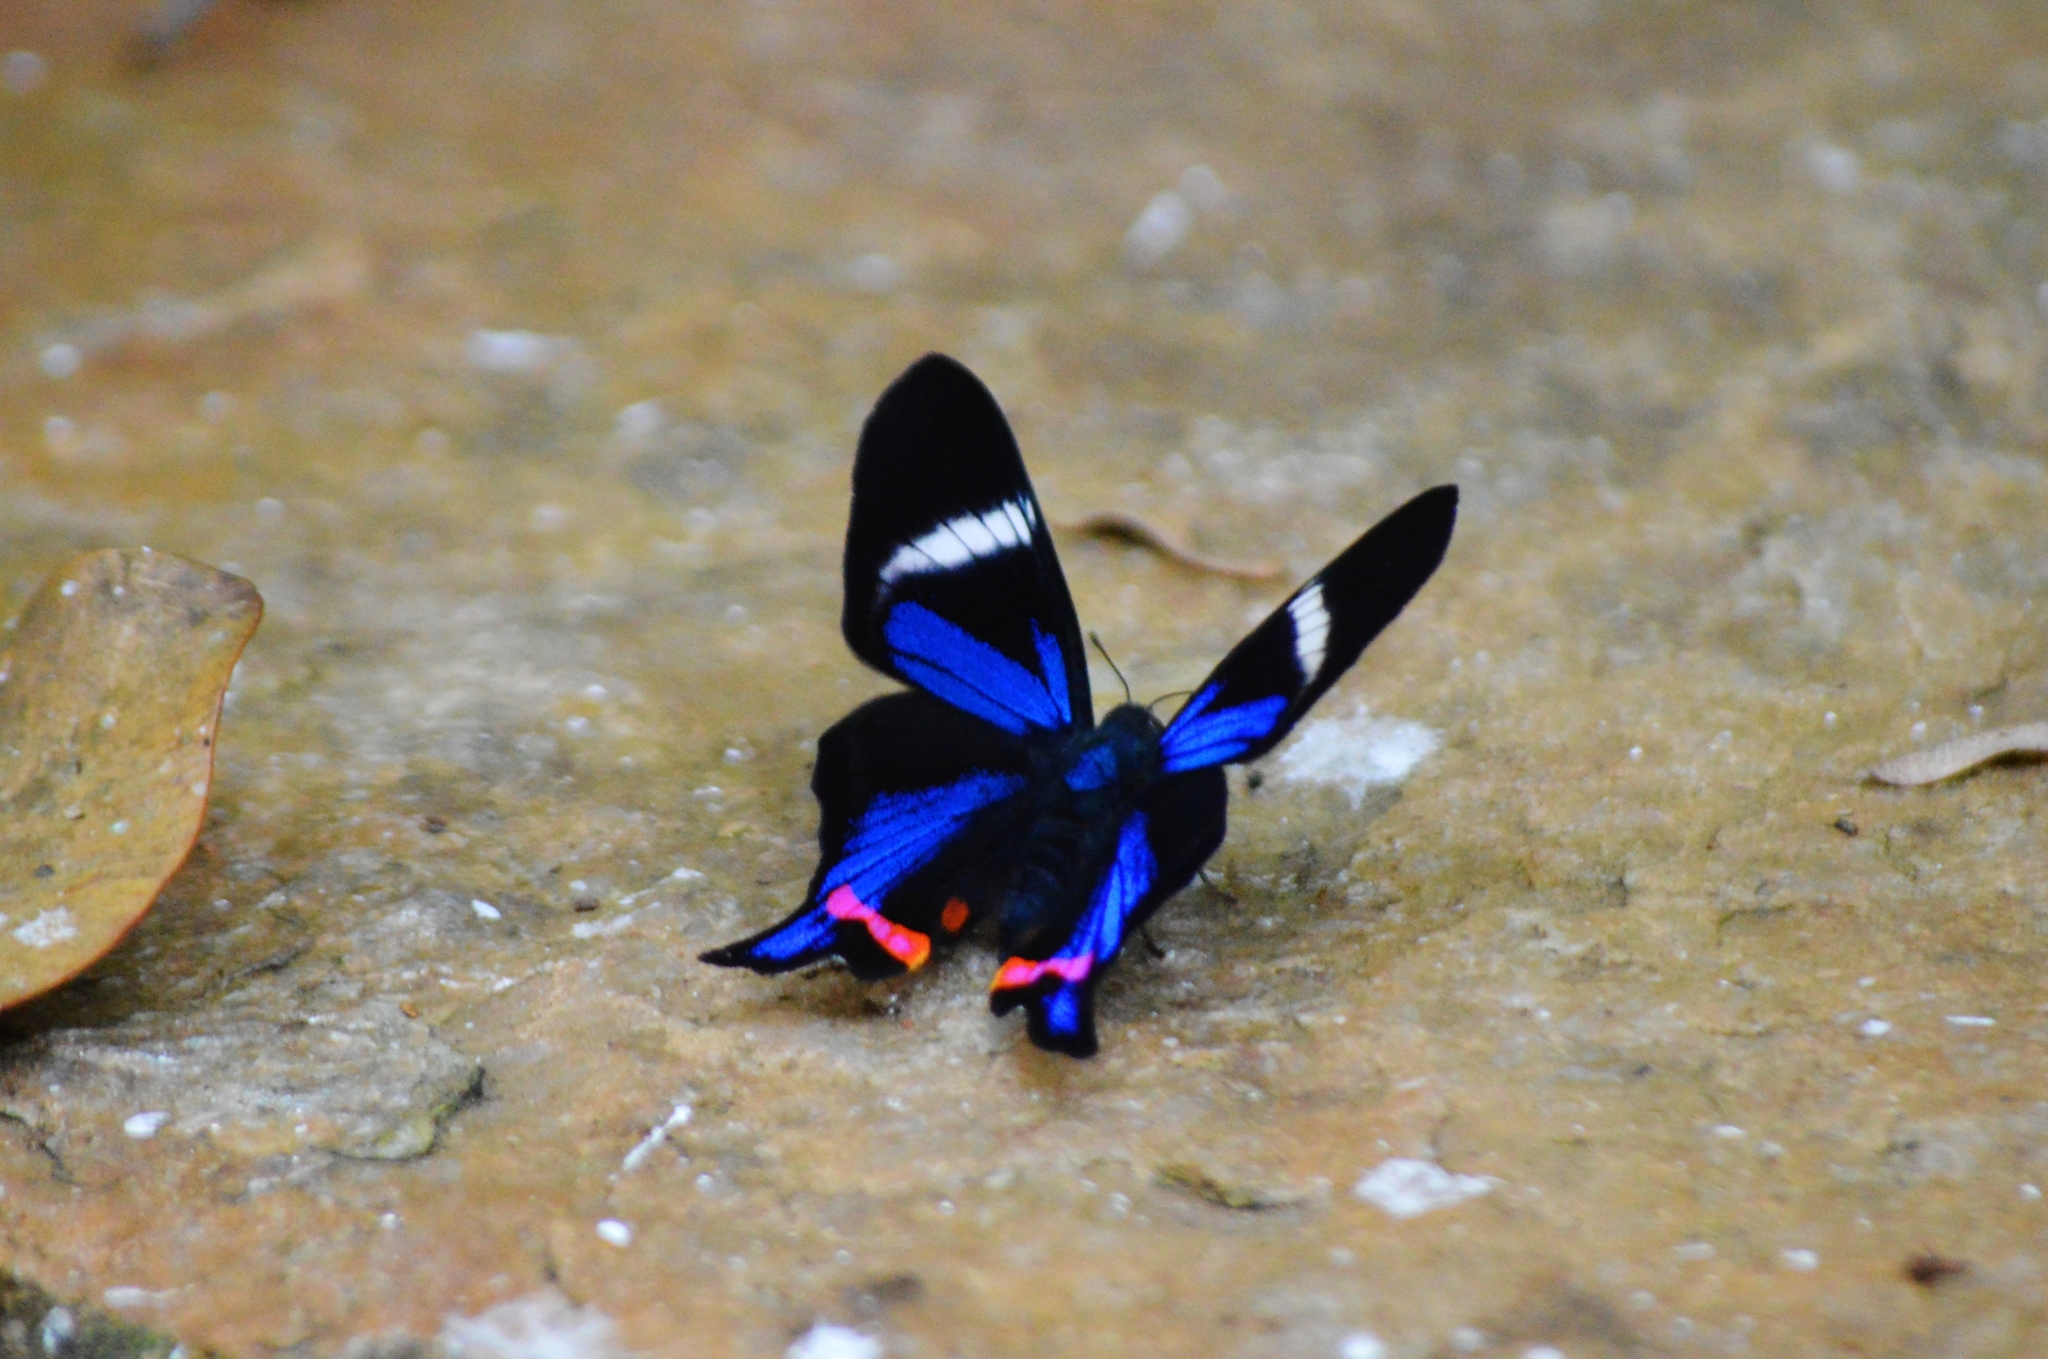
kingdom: Animalia
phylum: Arthropoda
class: Insecta
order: Lepidoptera
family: Riodinidae
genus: Rhetus
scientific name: Rhetus periander
